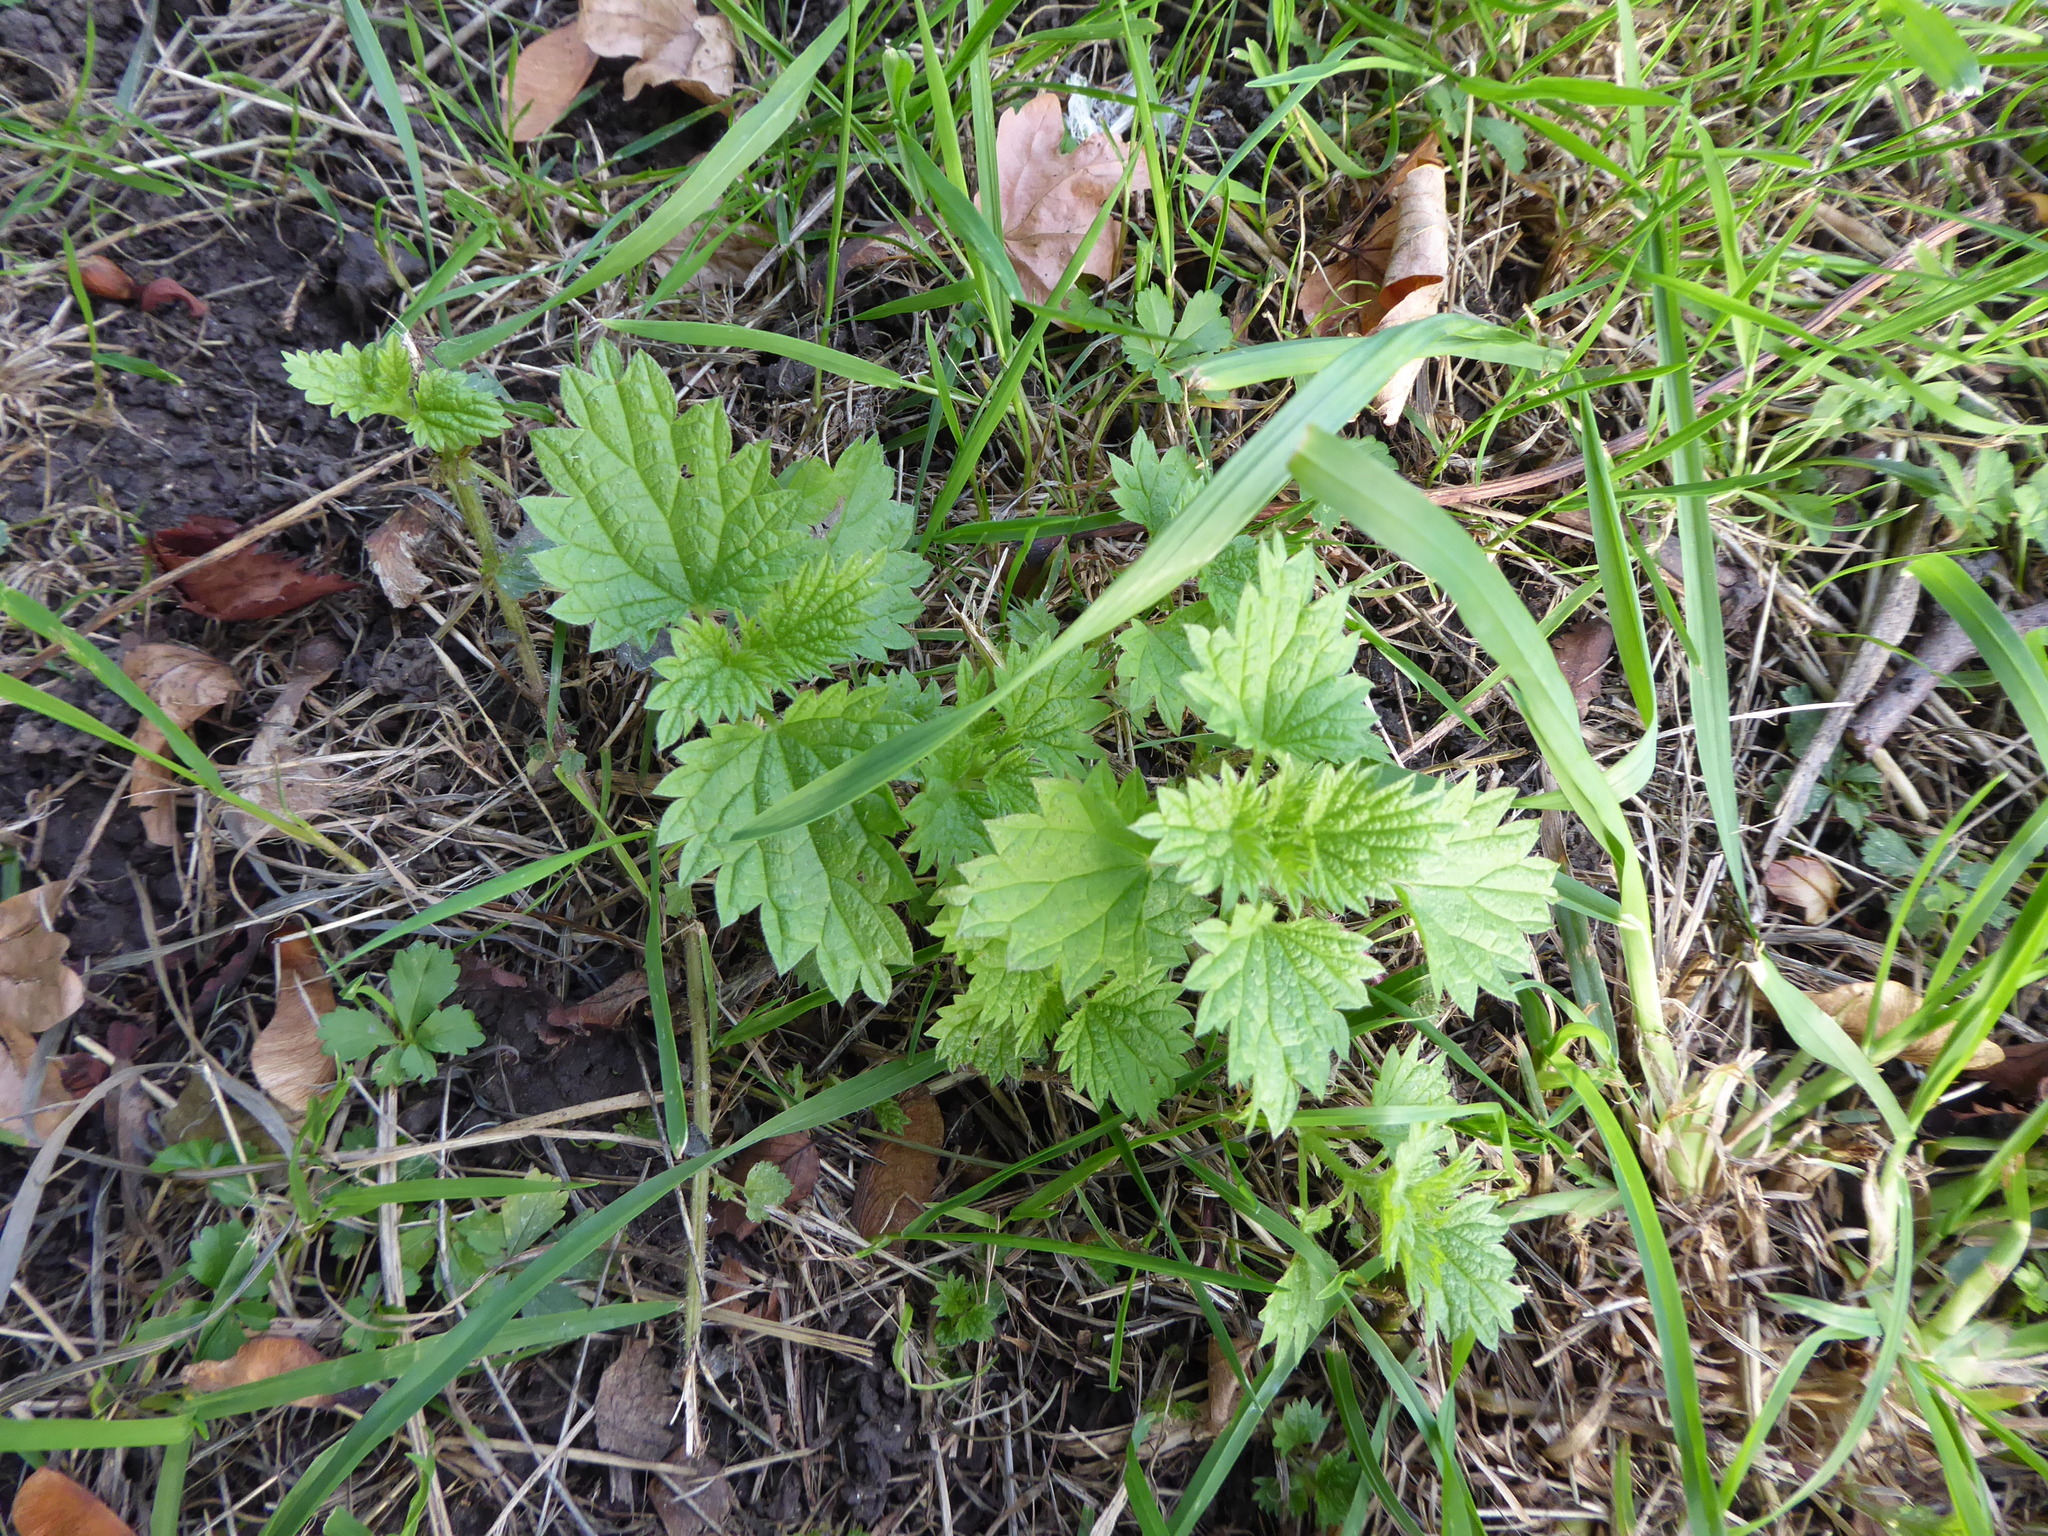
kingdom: Plantae
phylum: Tracheophyta
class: Magnoliopsida
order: Rosales
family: Urticaceae
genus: Urtica
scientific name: Urtica urens
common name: Dwarf nettle
